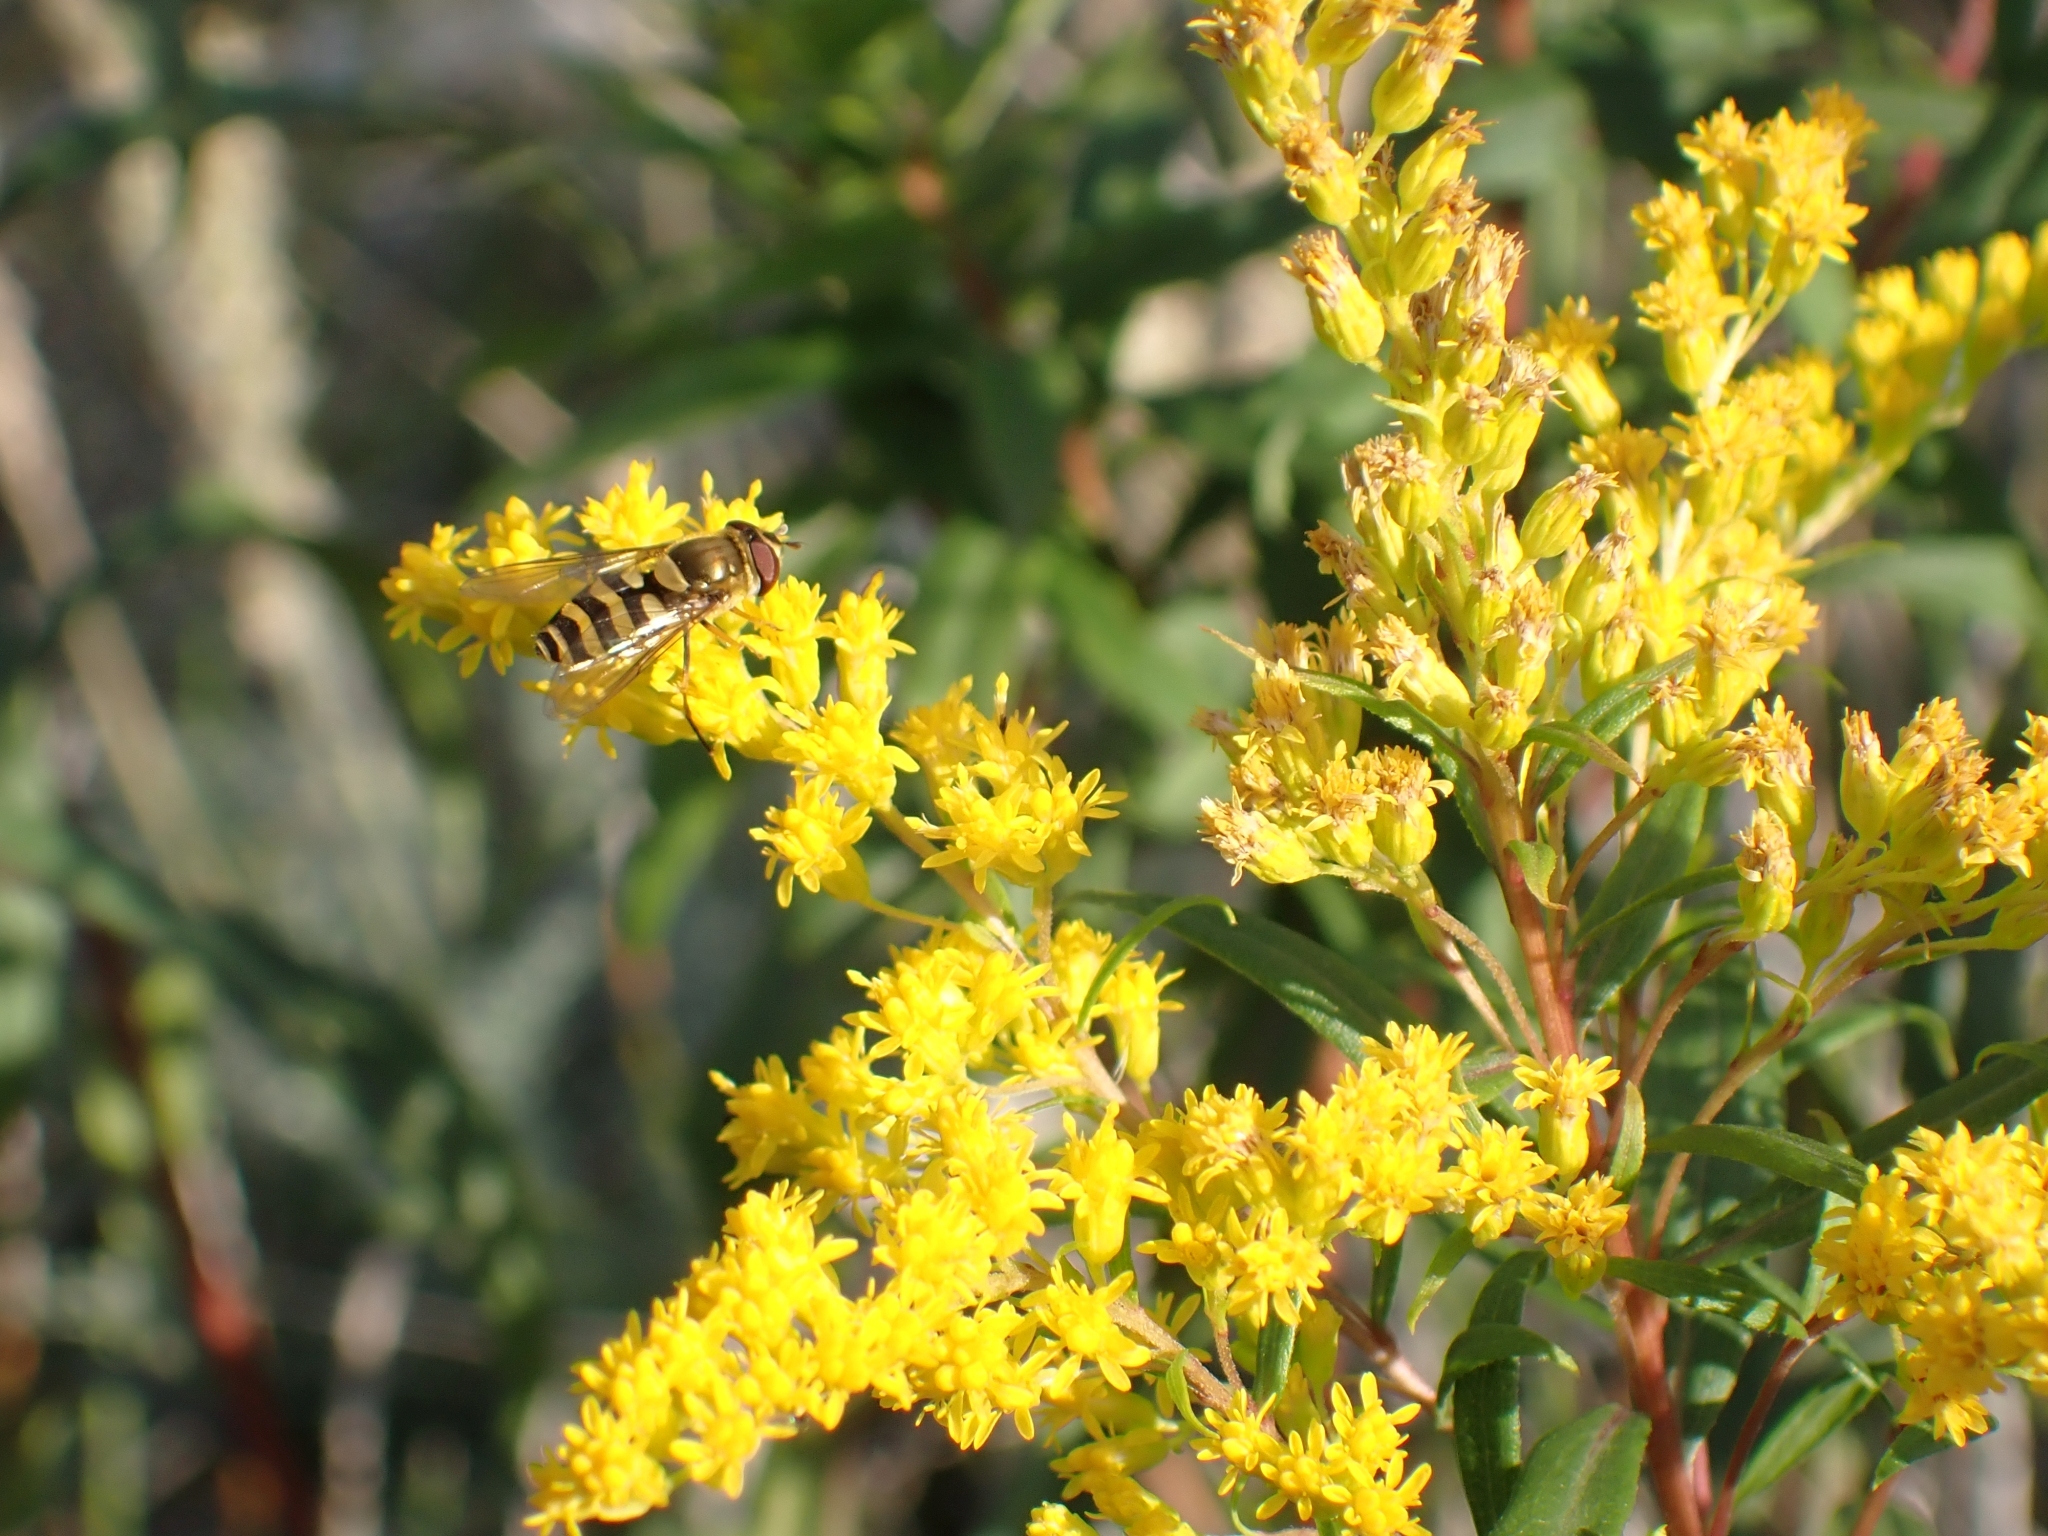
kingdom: Animalia
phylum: Arthropoda
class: Insecta
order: Diptera
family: Syrphidae
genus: Syrphus
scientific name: Syrphus
